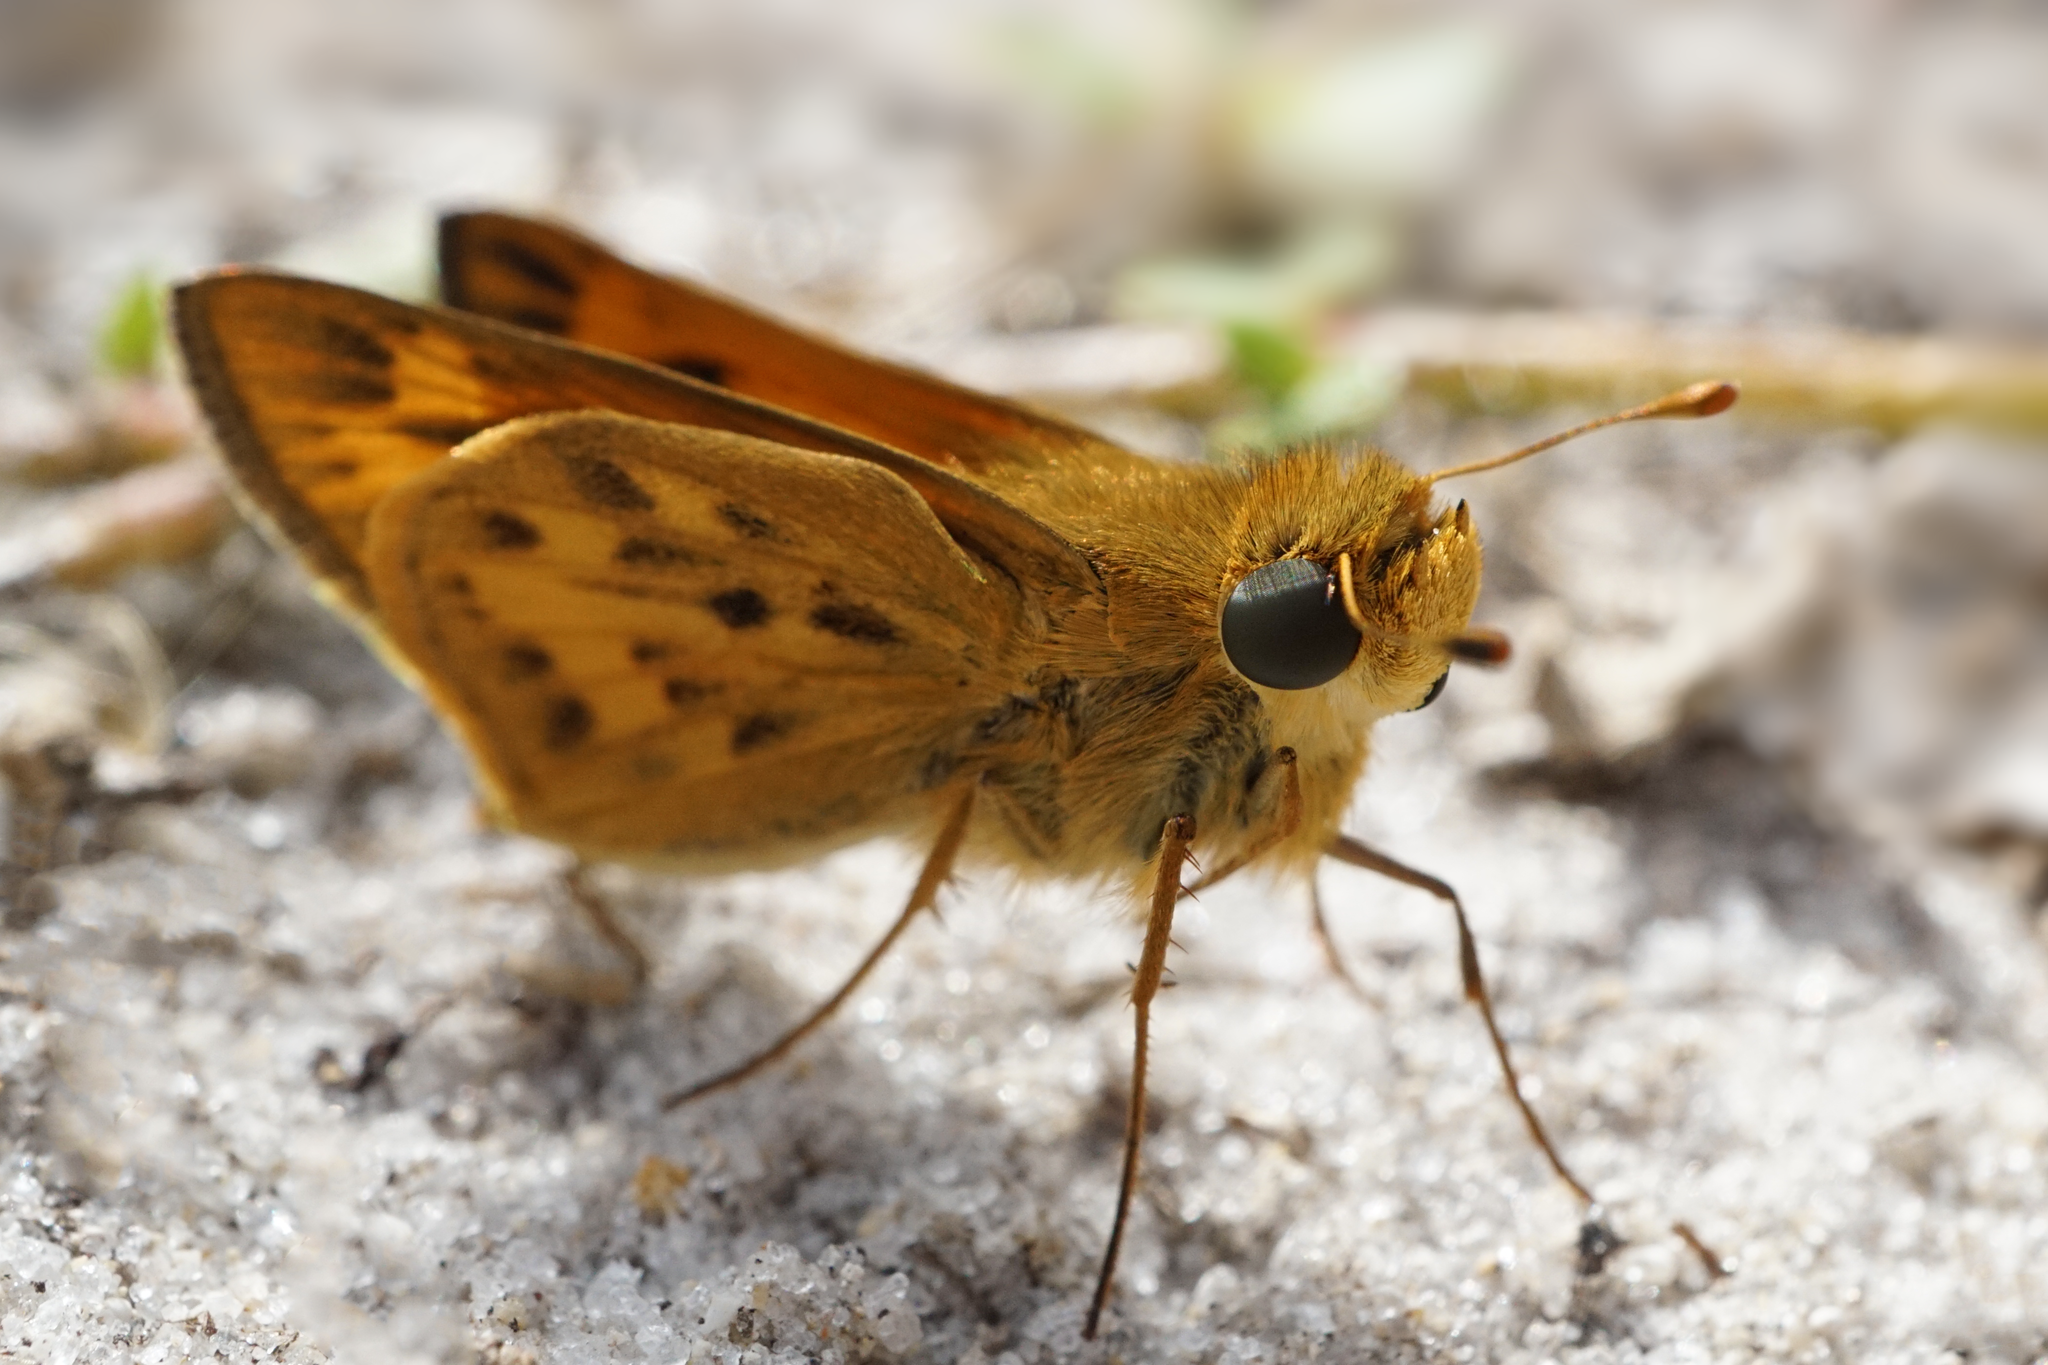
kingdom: Animalia
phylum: Arthropoda
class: Insecta
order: Lepidoptera
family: Hesperiidae
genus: Hylephila
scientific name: Hylephila phyleus
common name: Fiery skipper
